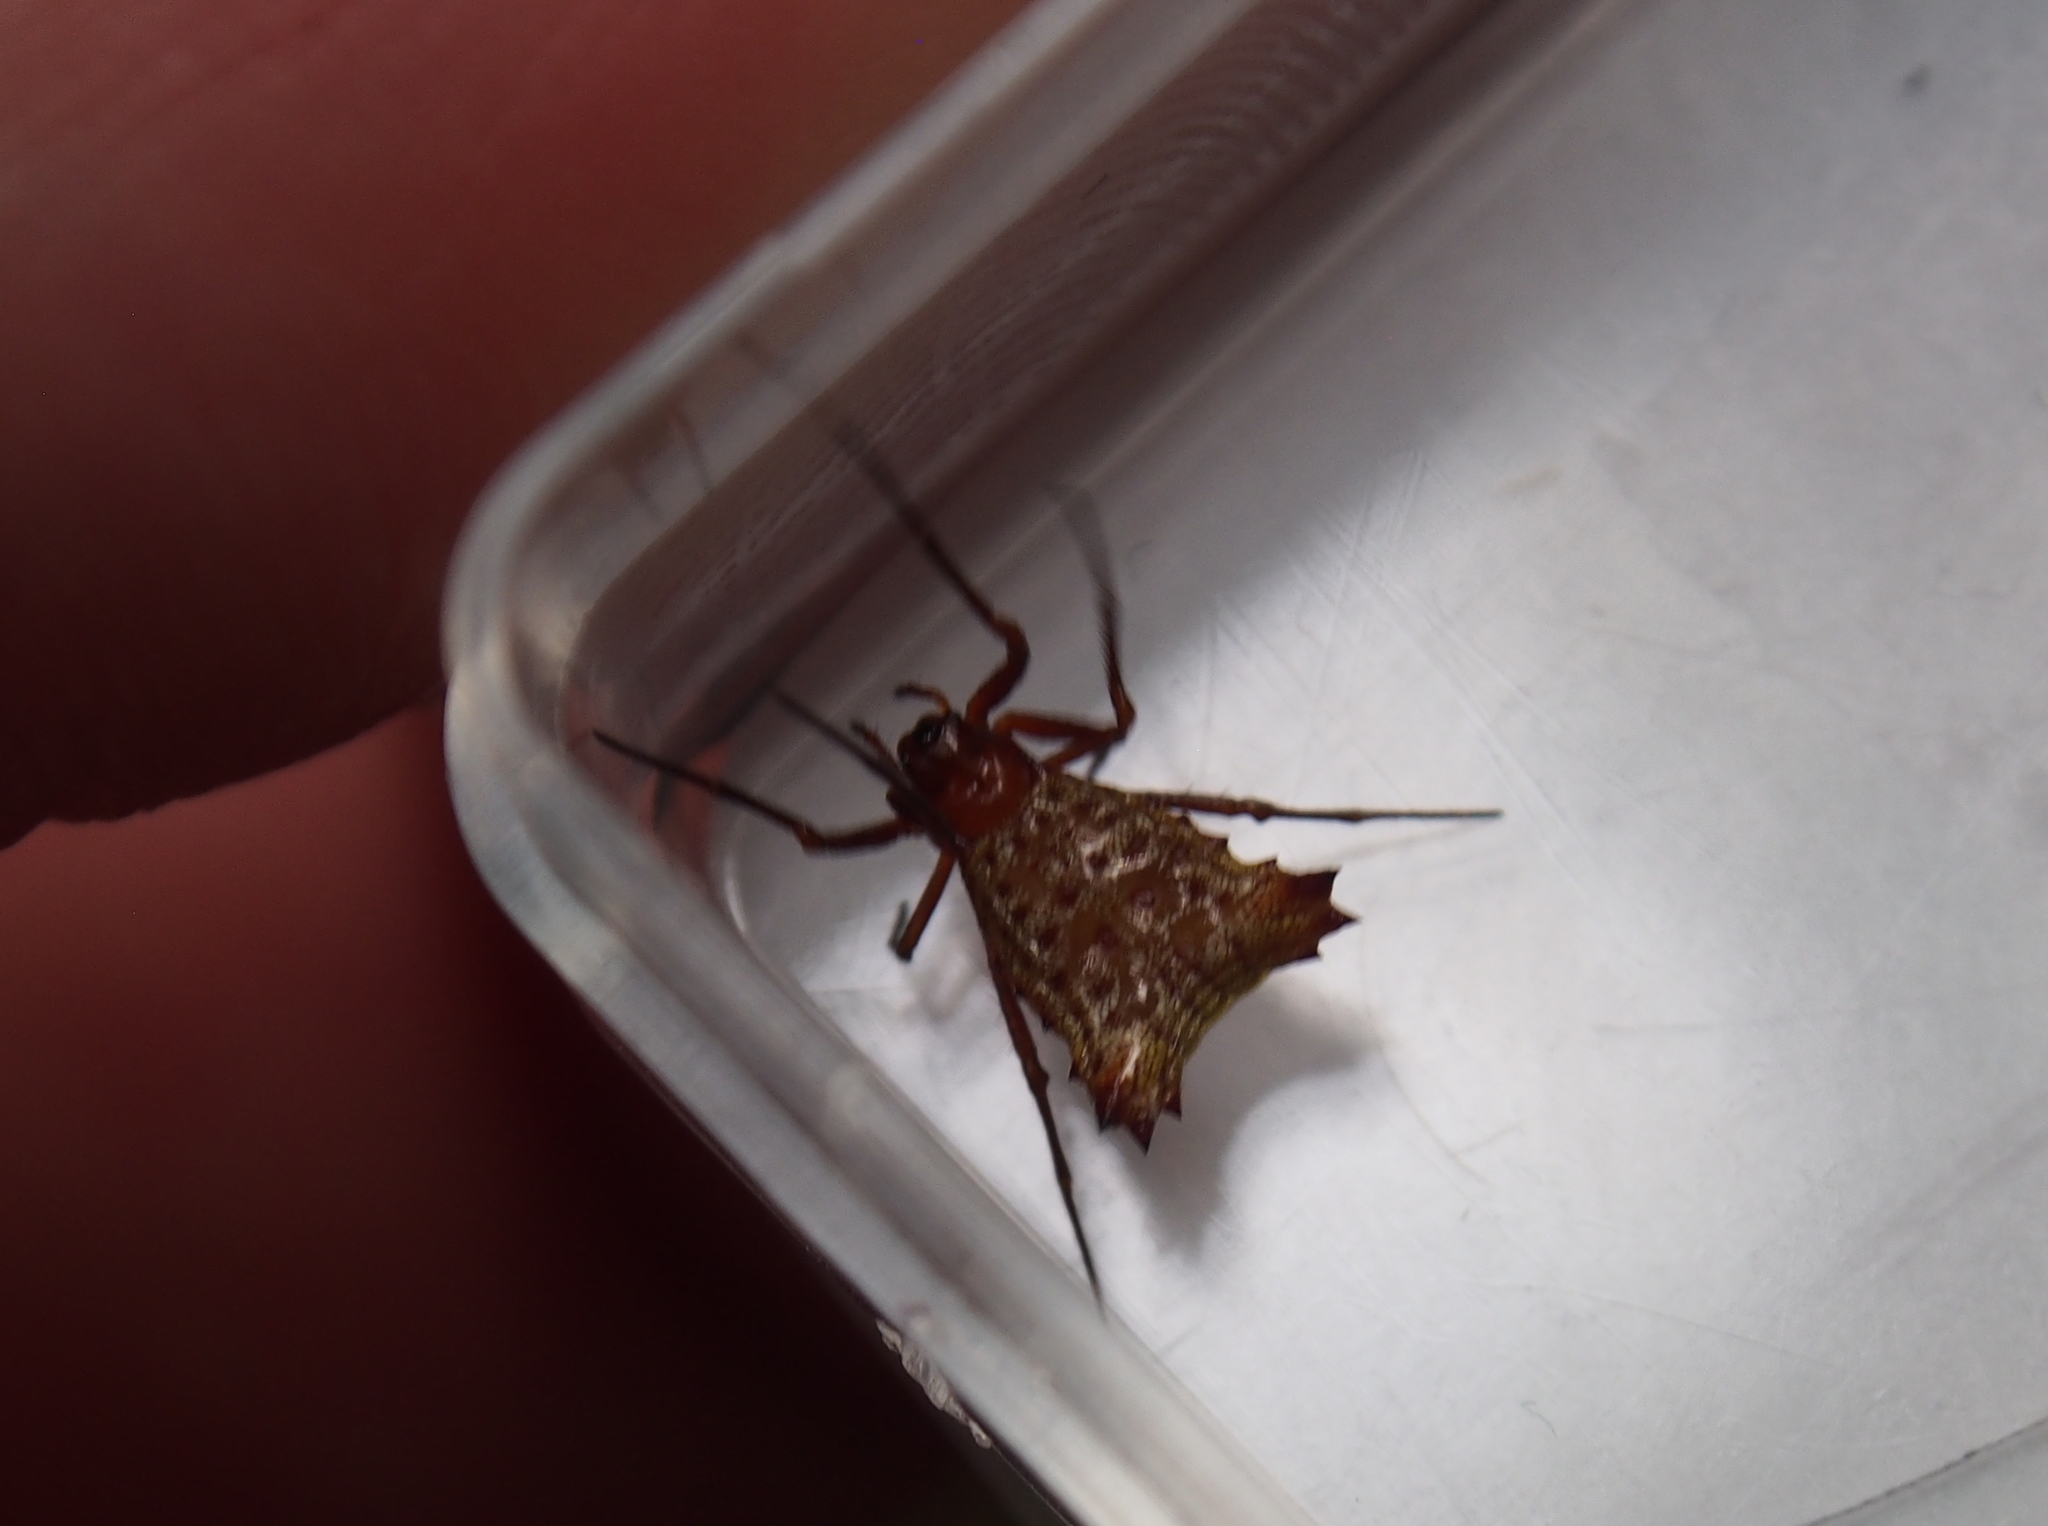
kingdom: Animalia
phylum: Arthropoda
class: Arachnida
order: Araneae
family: Araneidae
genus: Micrathena
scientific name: Micrathena molesta
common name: Orb weavers
